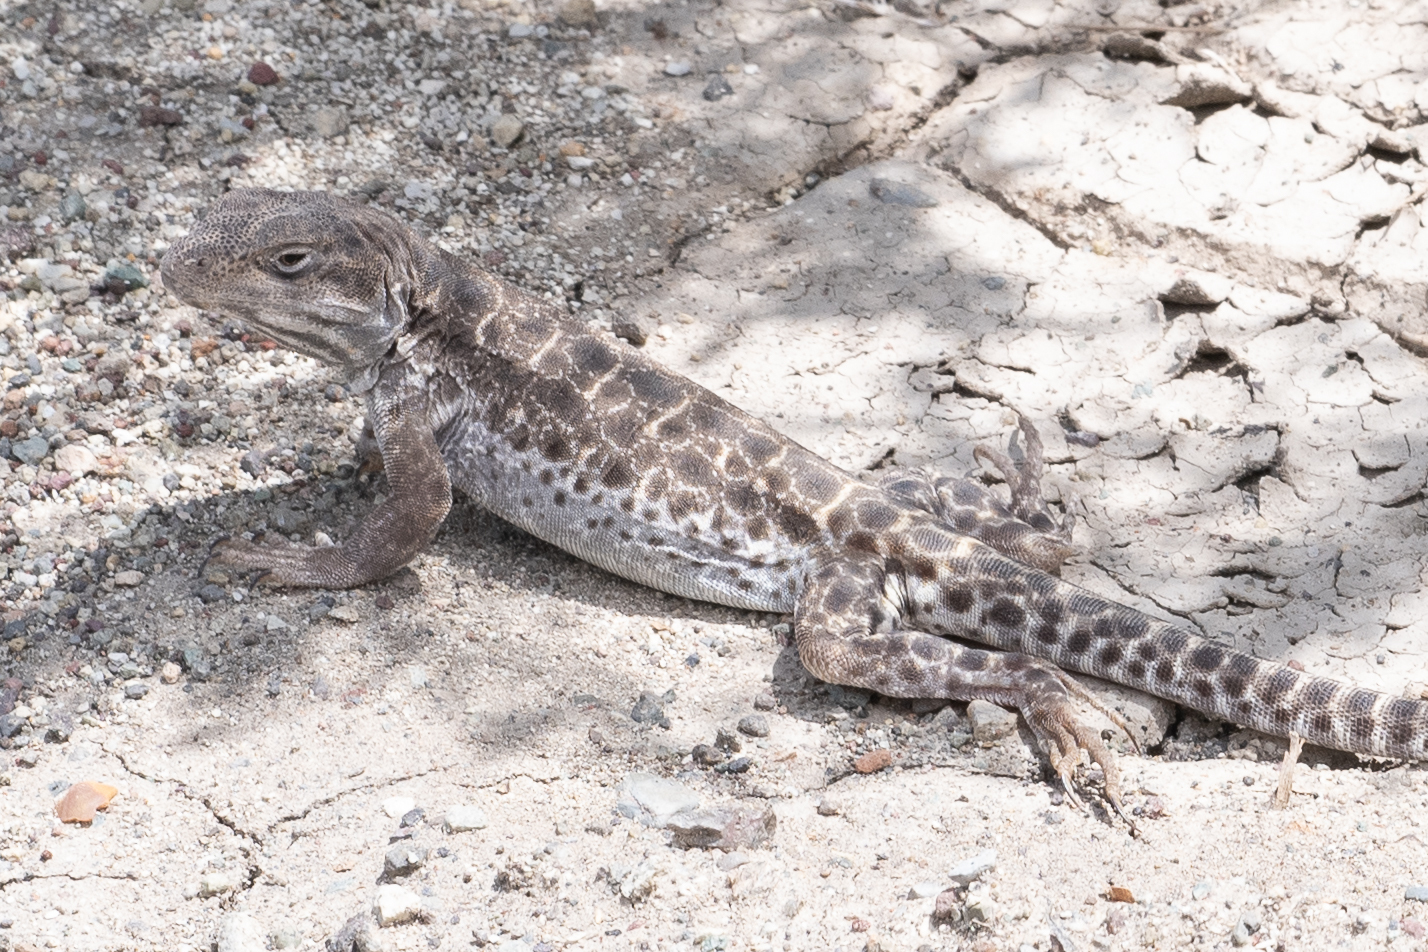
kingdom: Animalia
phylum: Chordata
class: Squamata
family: Crotaphytidae
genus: Gambelia
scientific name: Gambelia wislizenii
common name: Longnose leopard lizard
